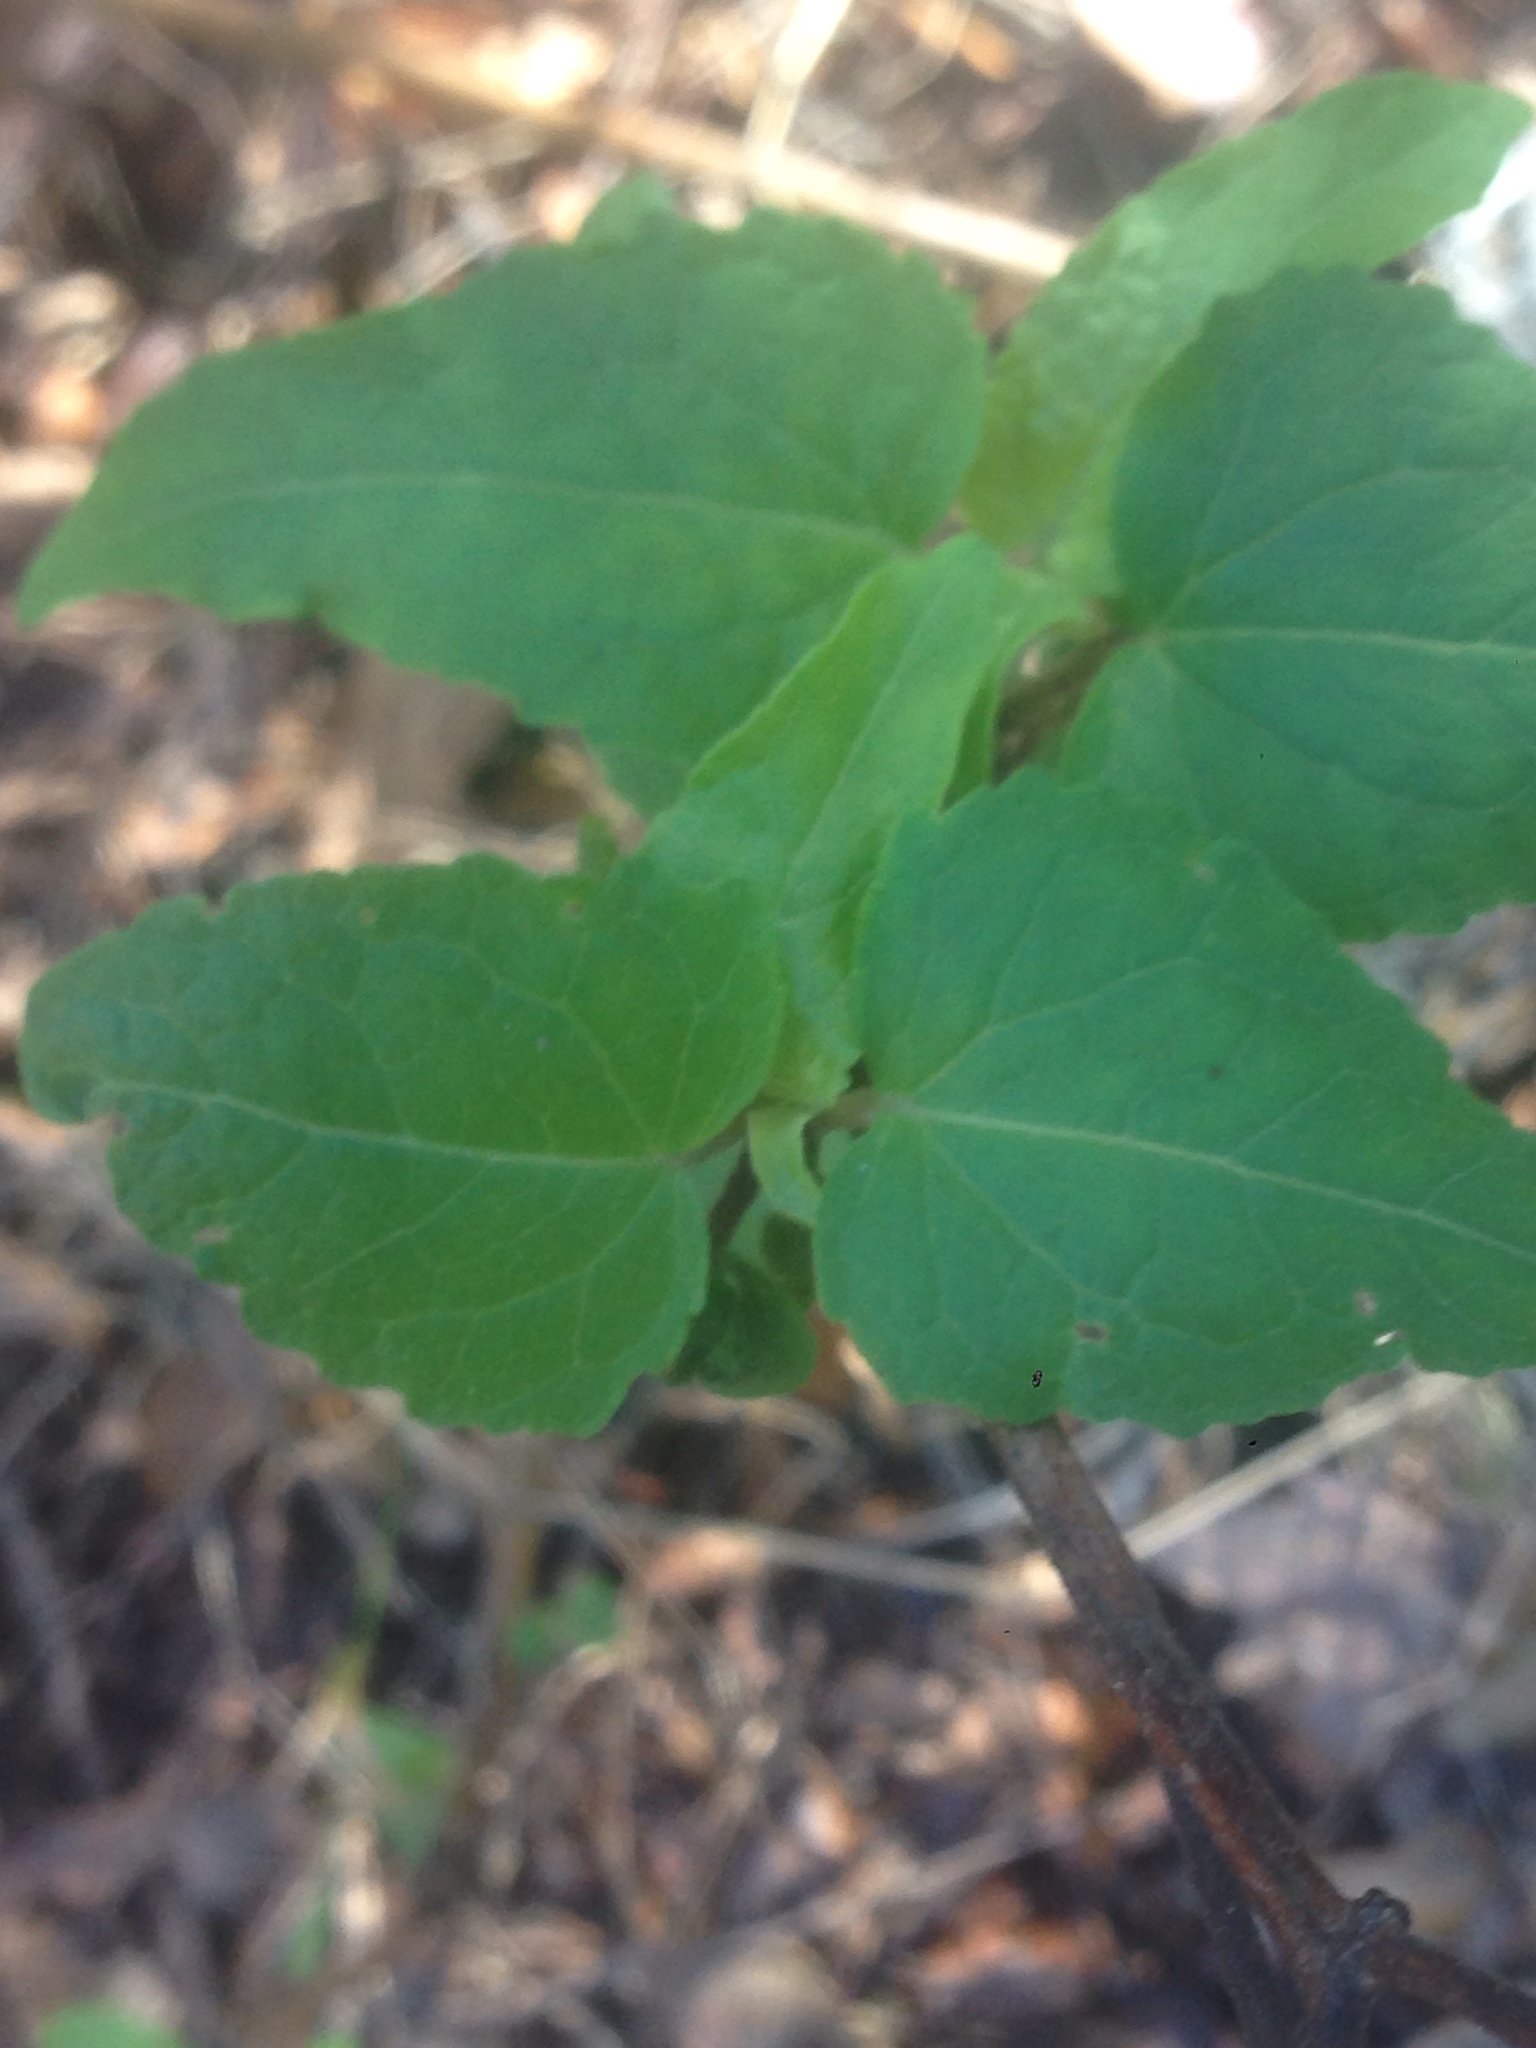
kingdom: Plantae
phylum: Tracheophyta
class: Magnoliopsida
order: Asterales
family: Asteraceae
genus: Venegasia
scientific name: Venegasia carpesioides
